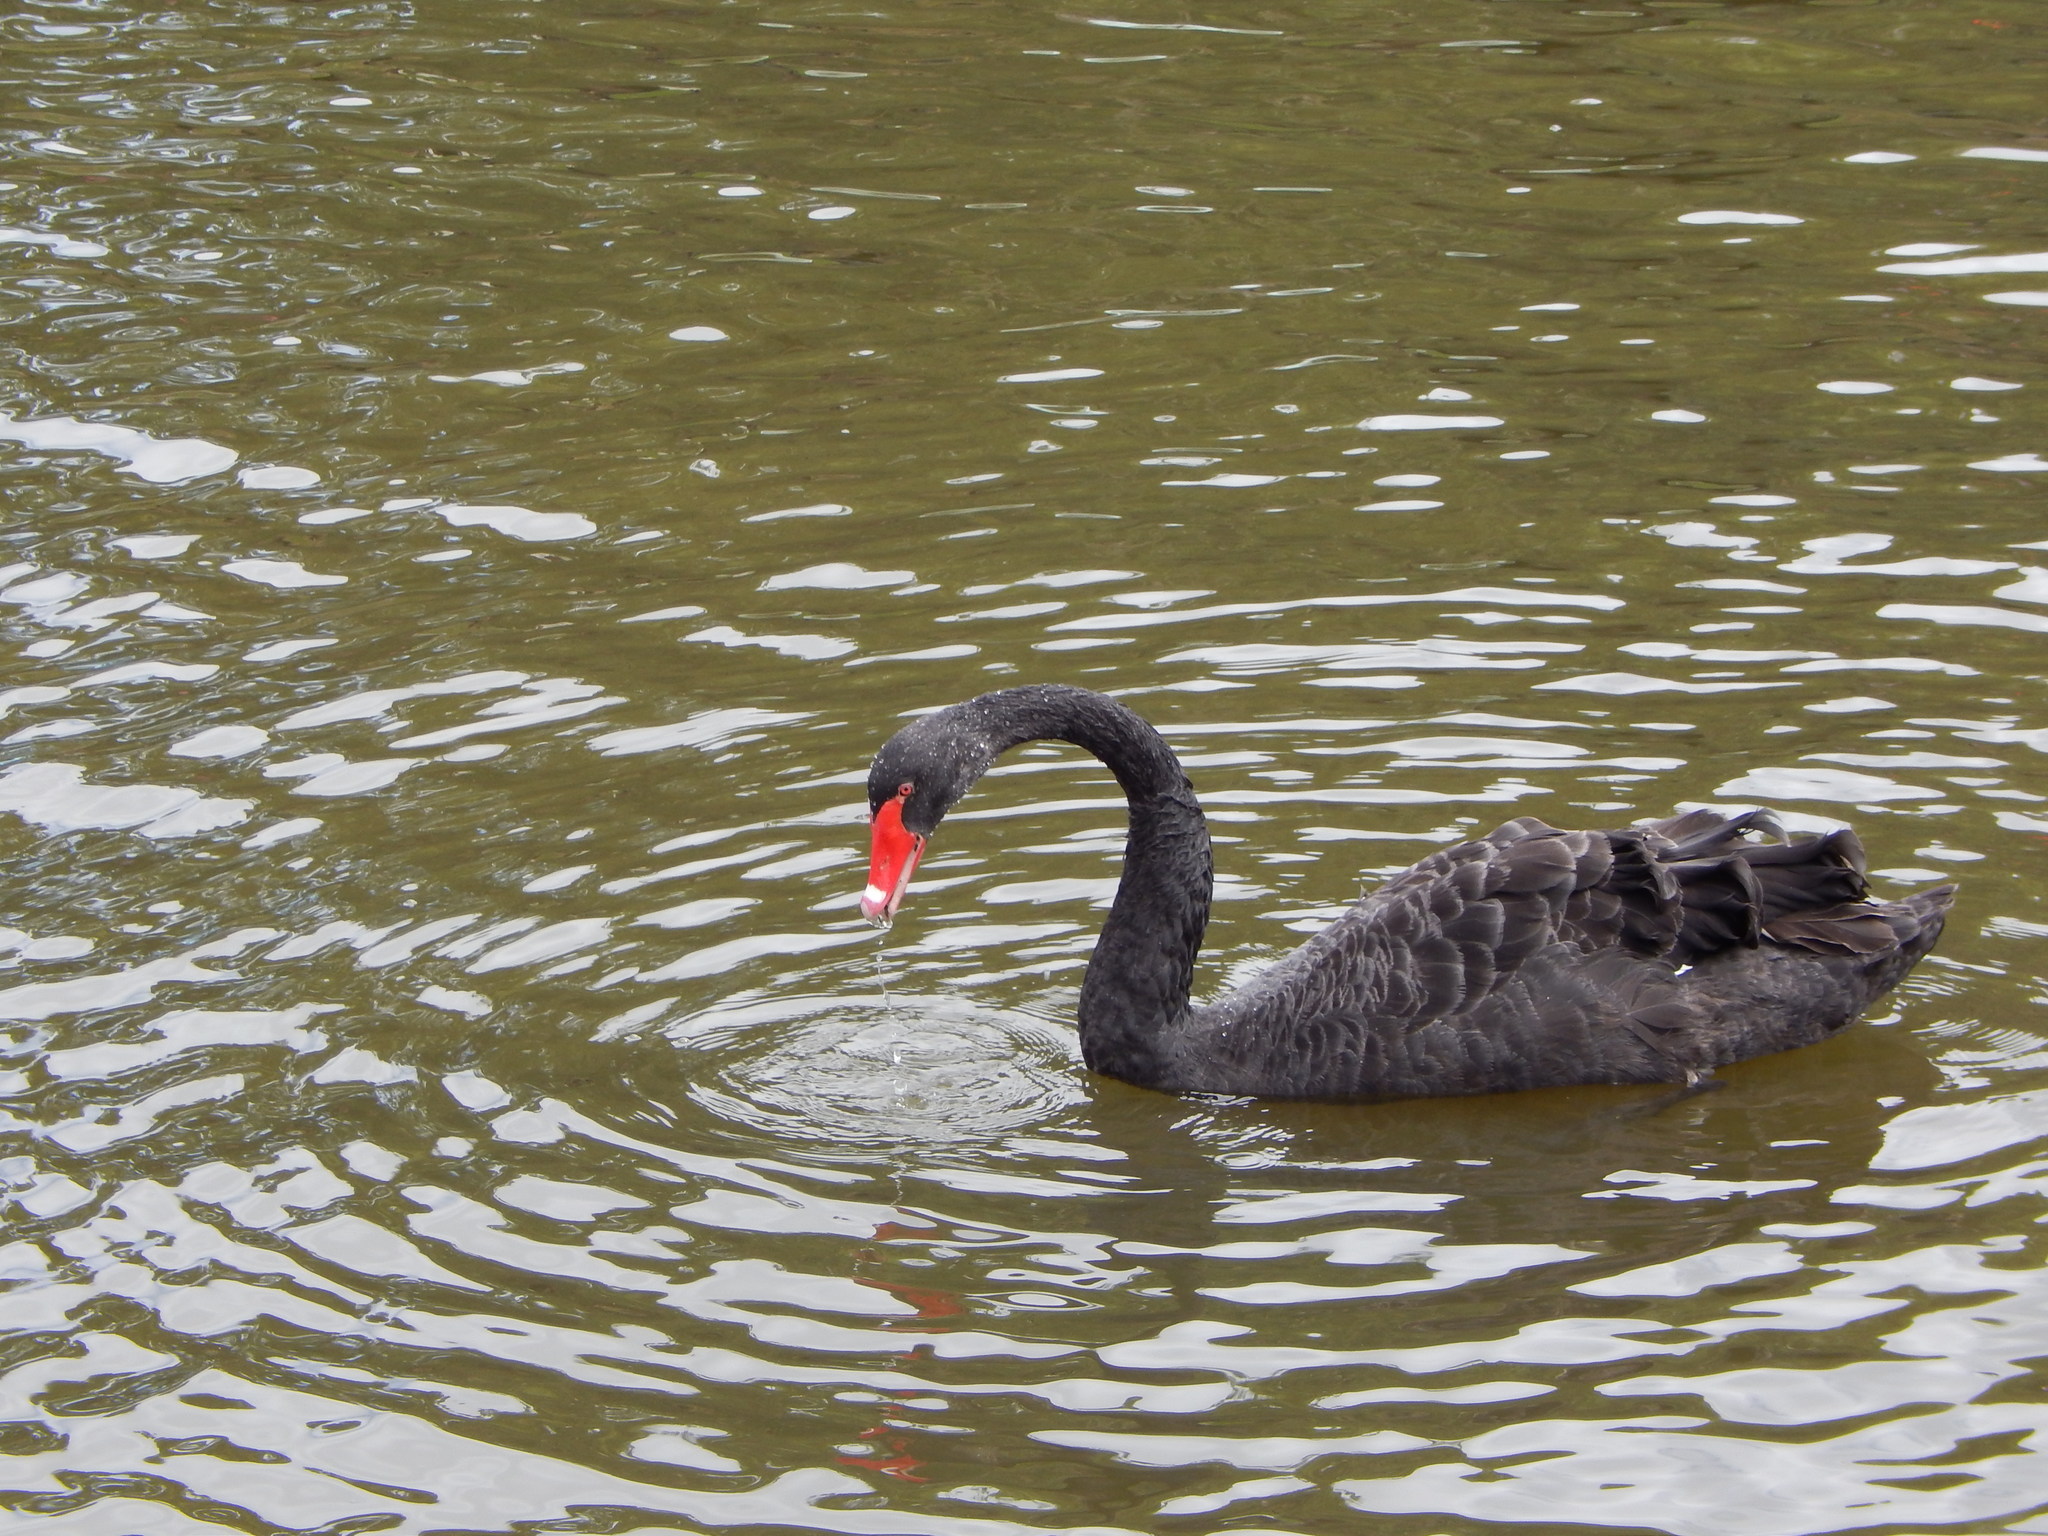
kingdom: Animalia
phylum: Chordata
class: Aves
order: Anseriformes
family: Anatidae
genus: Cygnus
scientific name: Cygnus atratus
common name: Black swan
